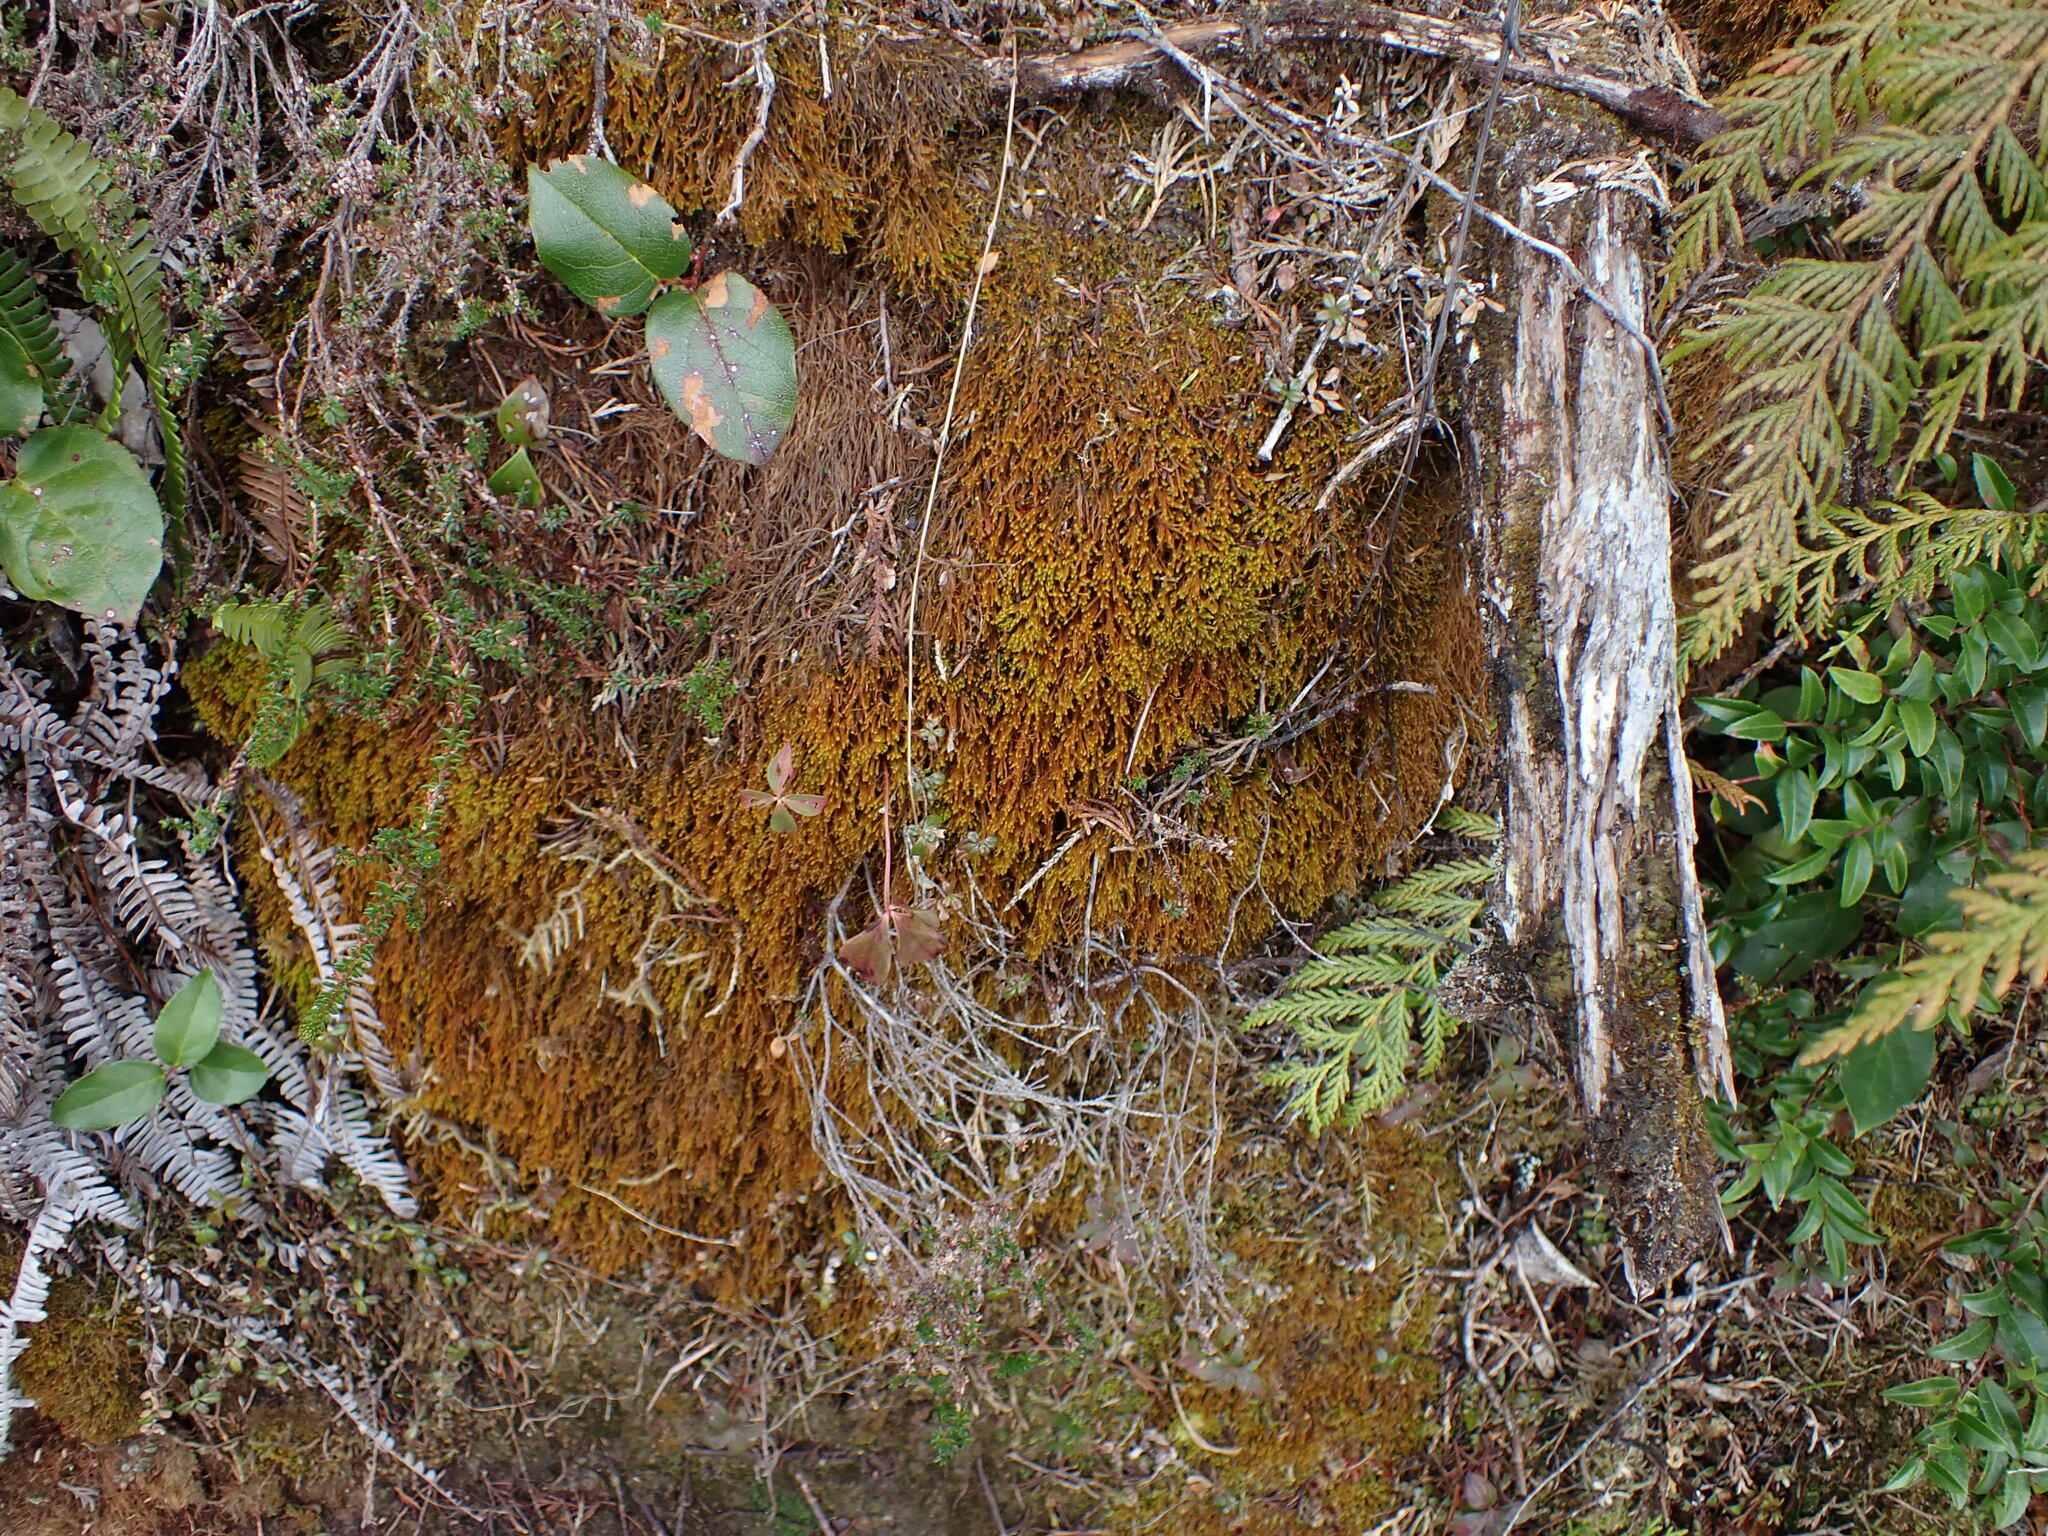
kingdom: Plantae
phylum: Marchantiophyta
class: Jungermanniopsida
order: Jungermanniales
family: Herbertaceae
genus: Herbertus
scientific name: Herbertus aduncus
